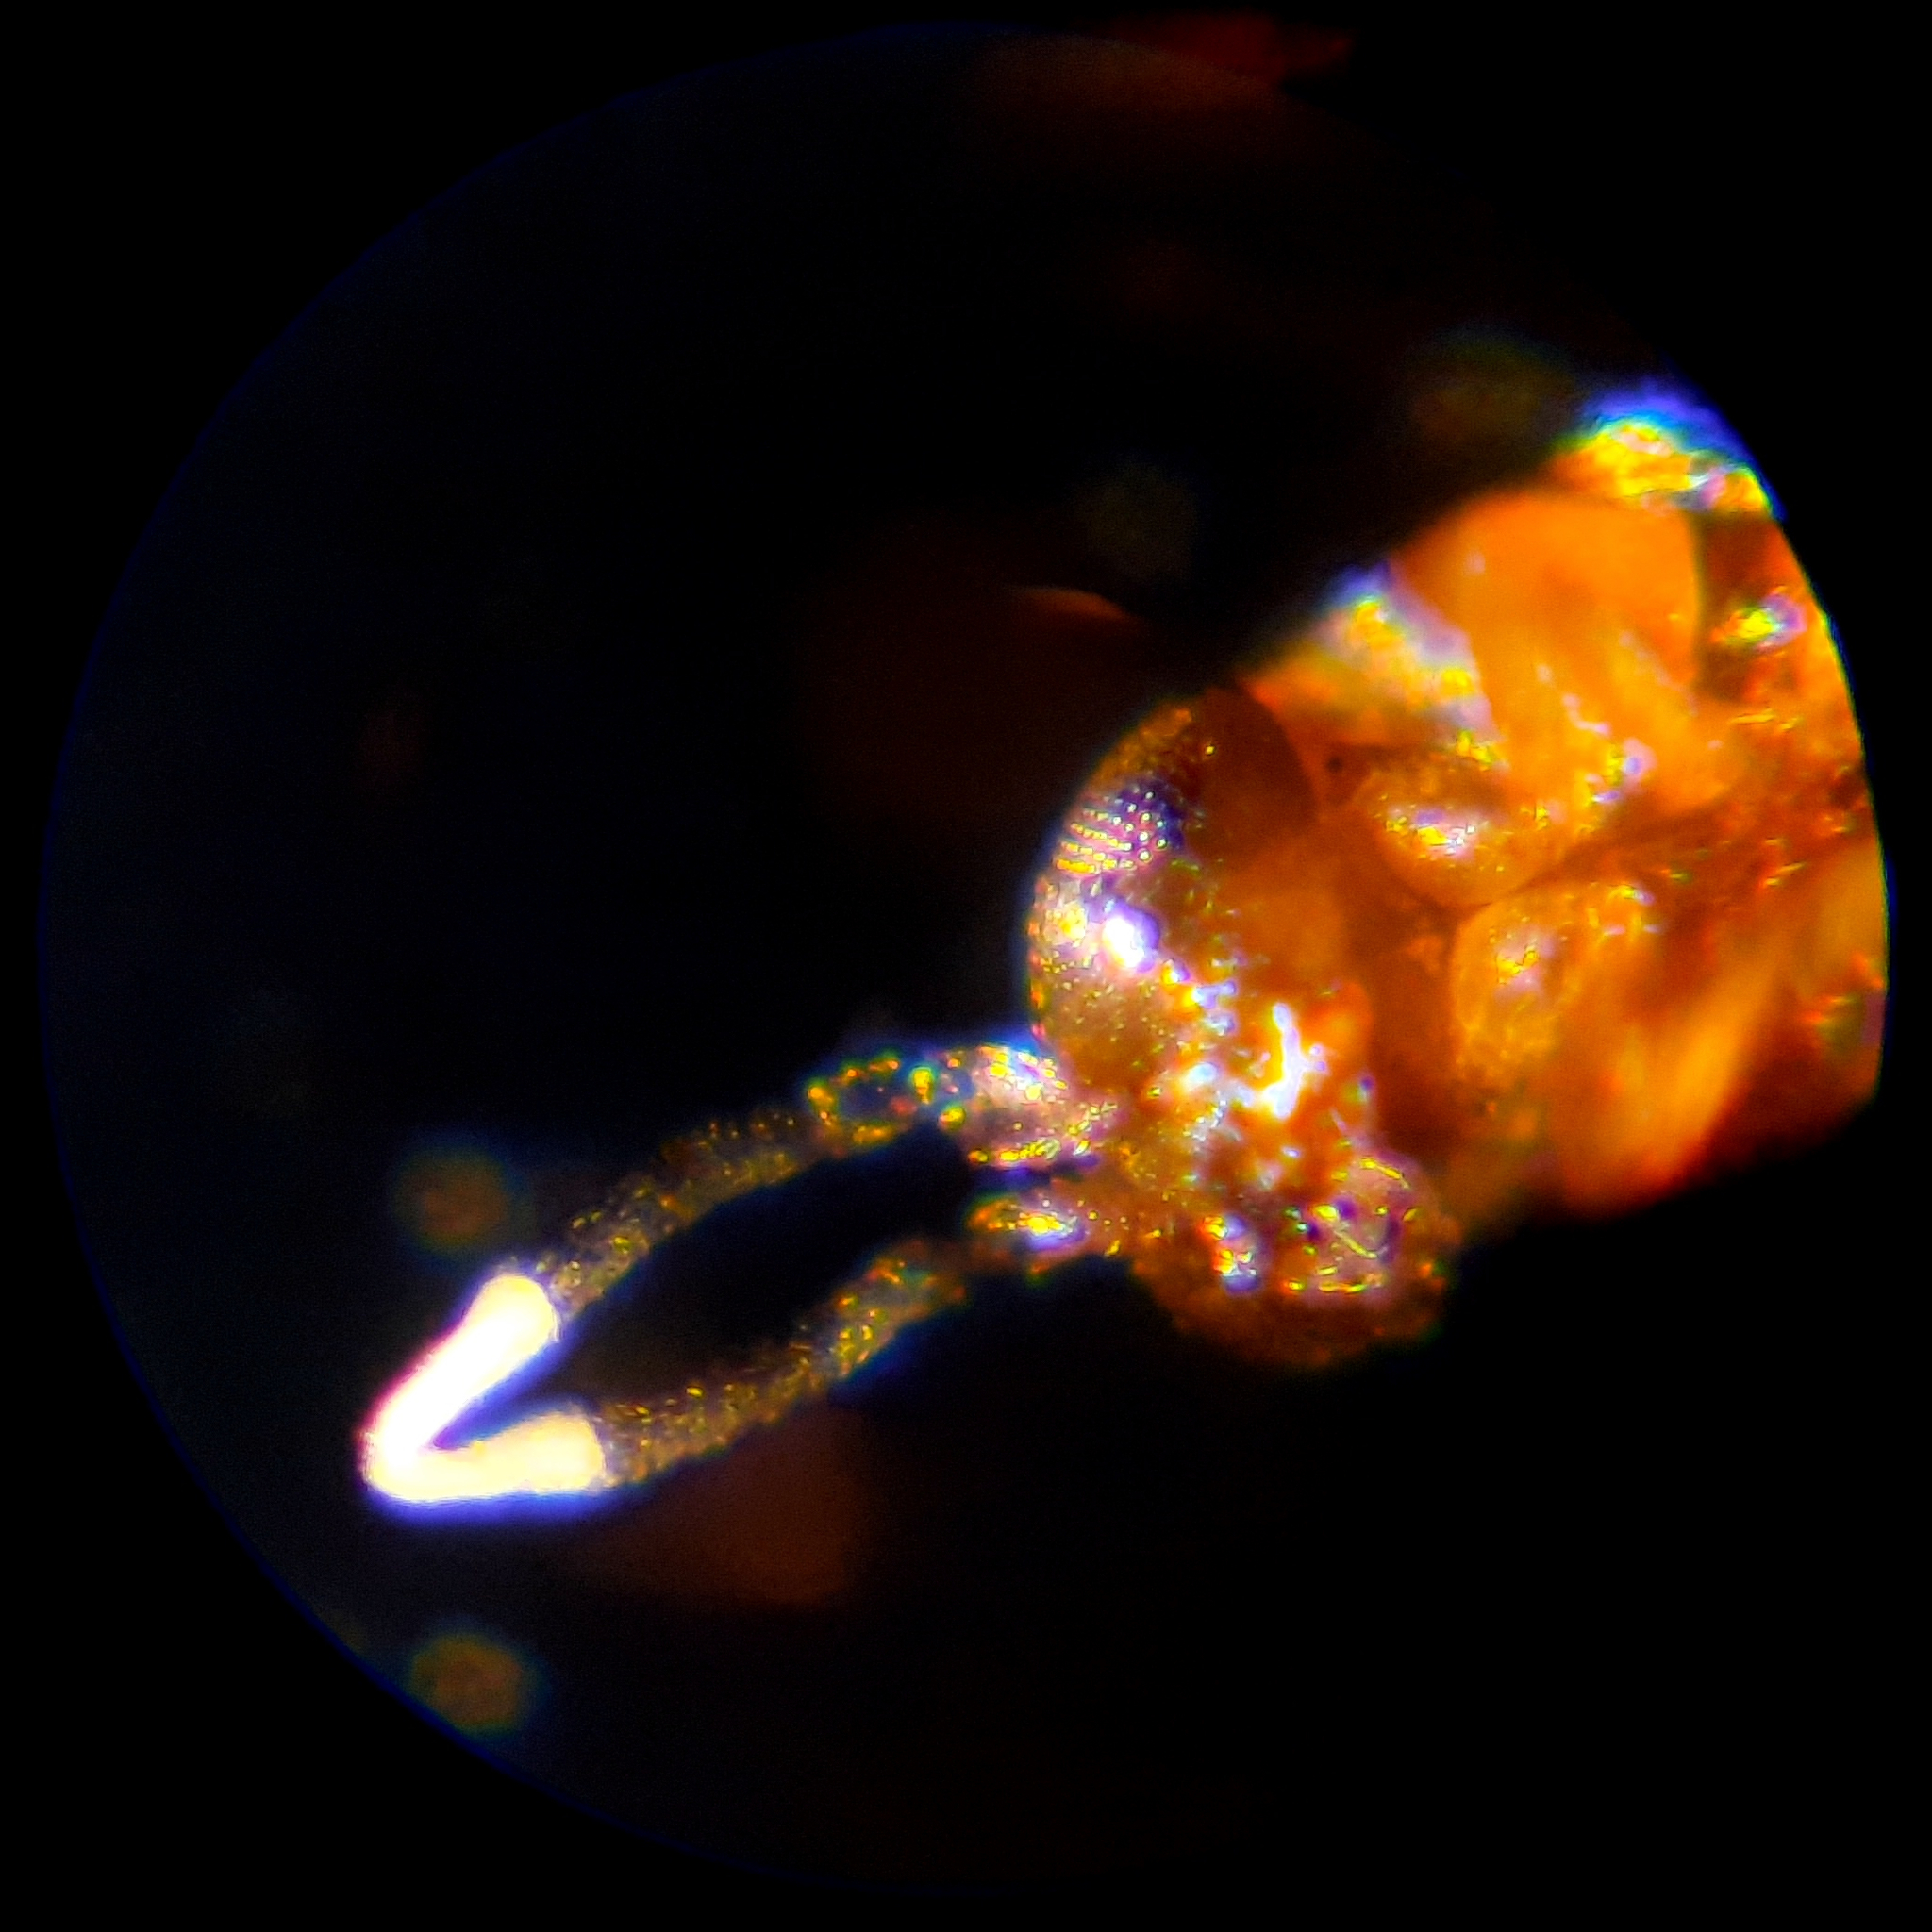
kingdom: Animalia
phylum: Arthropoda
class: Insecta
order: Hymenoptera
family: Encyrtidae
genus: Neodusmetia
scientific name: Neodusmetia sangwani
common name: Encyrtid parasitoid
